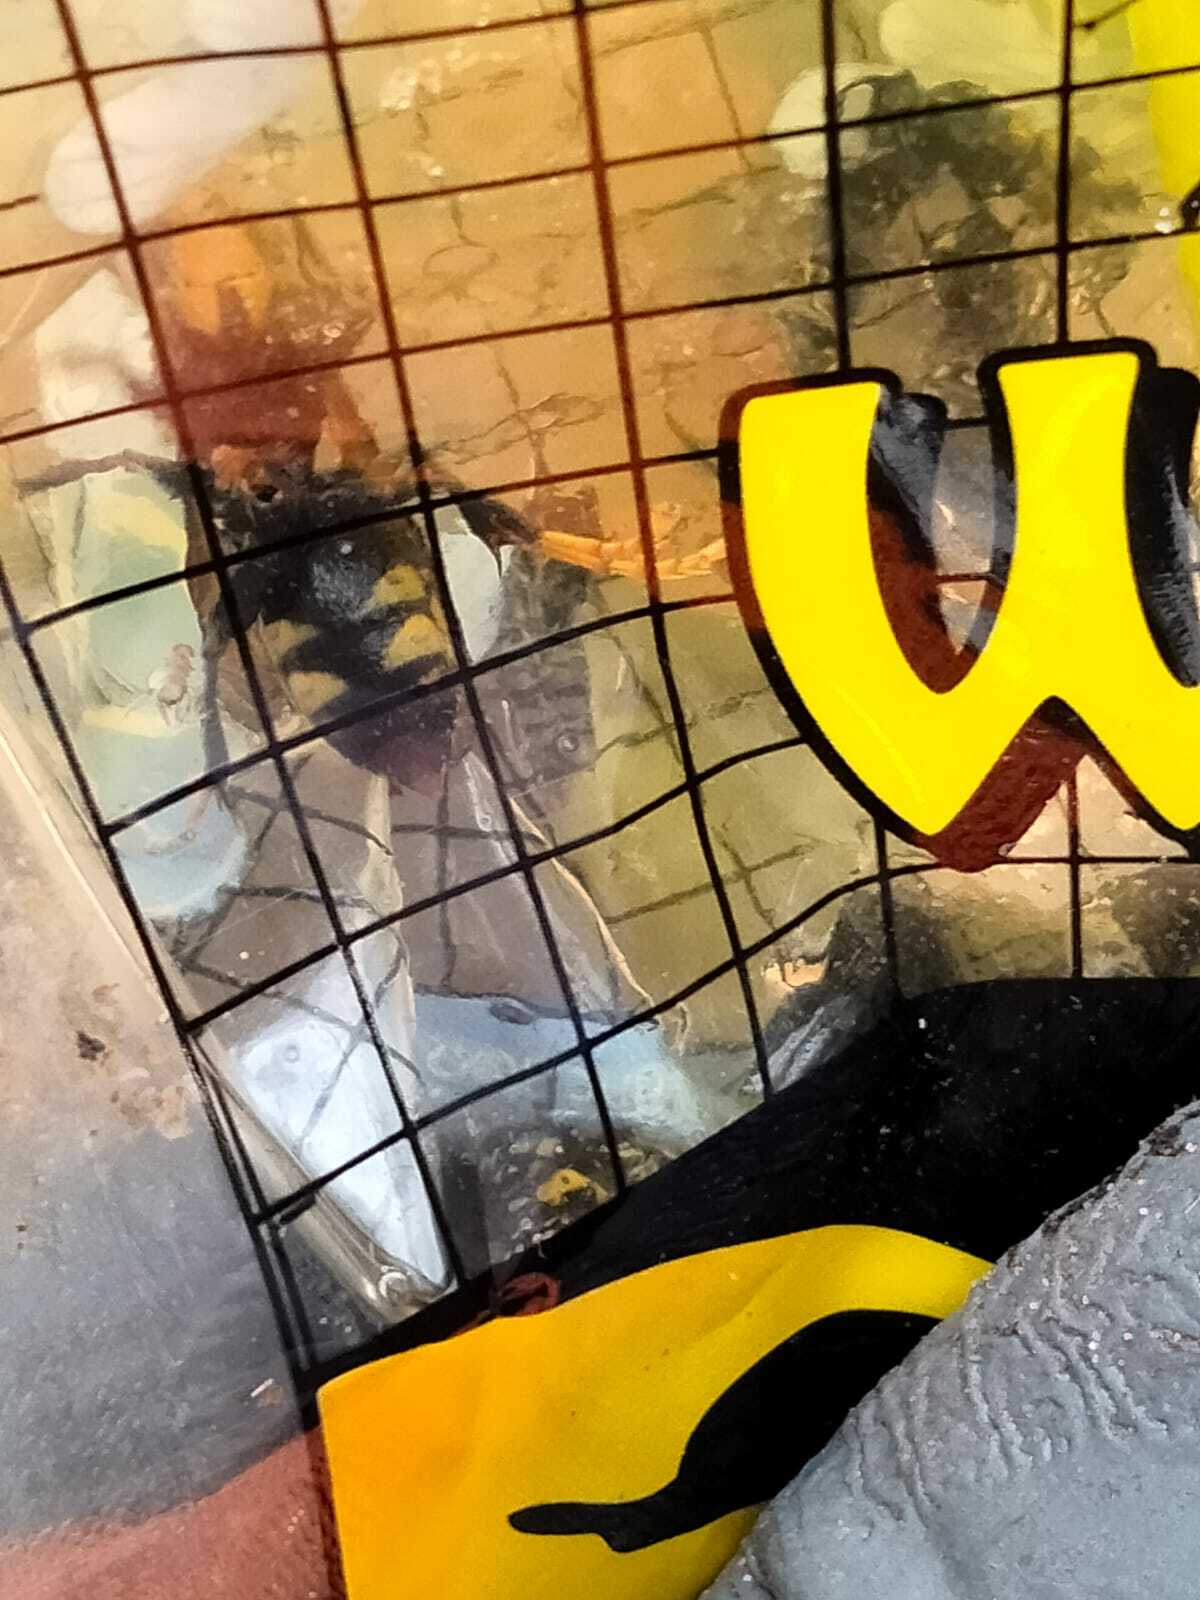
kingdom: Animalia
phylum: Arthropoda
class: Insecta
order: Hymenoptera
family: Vespidae
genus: Vespa
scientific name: Vespa velutina
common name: Asian hornet
